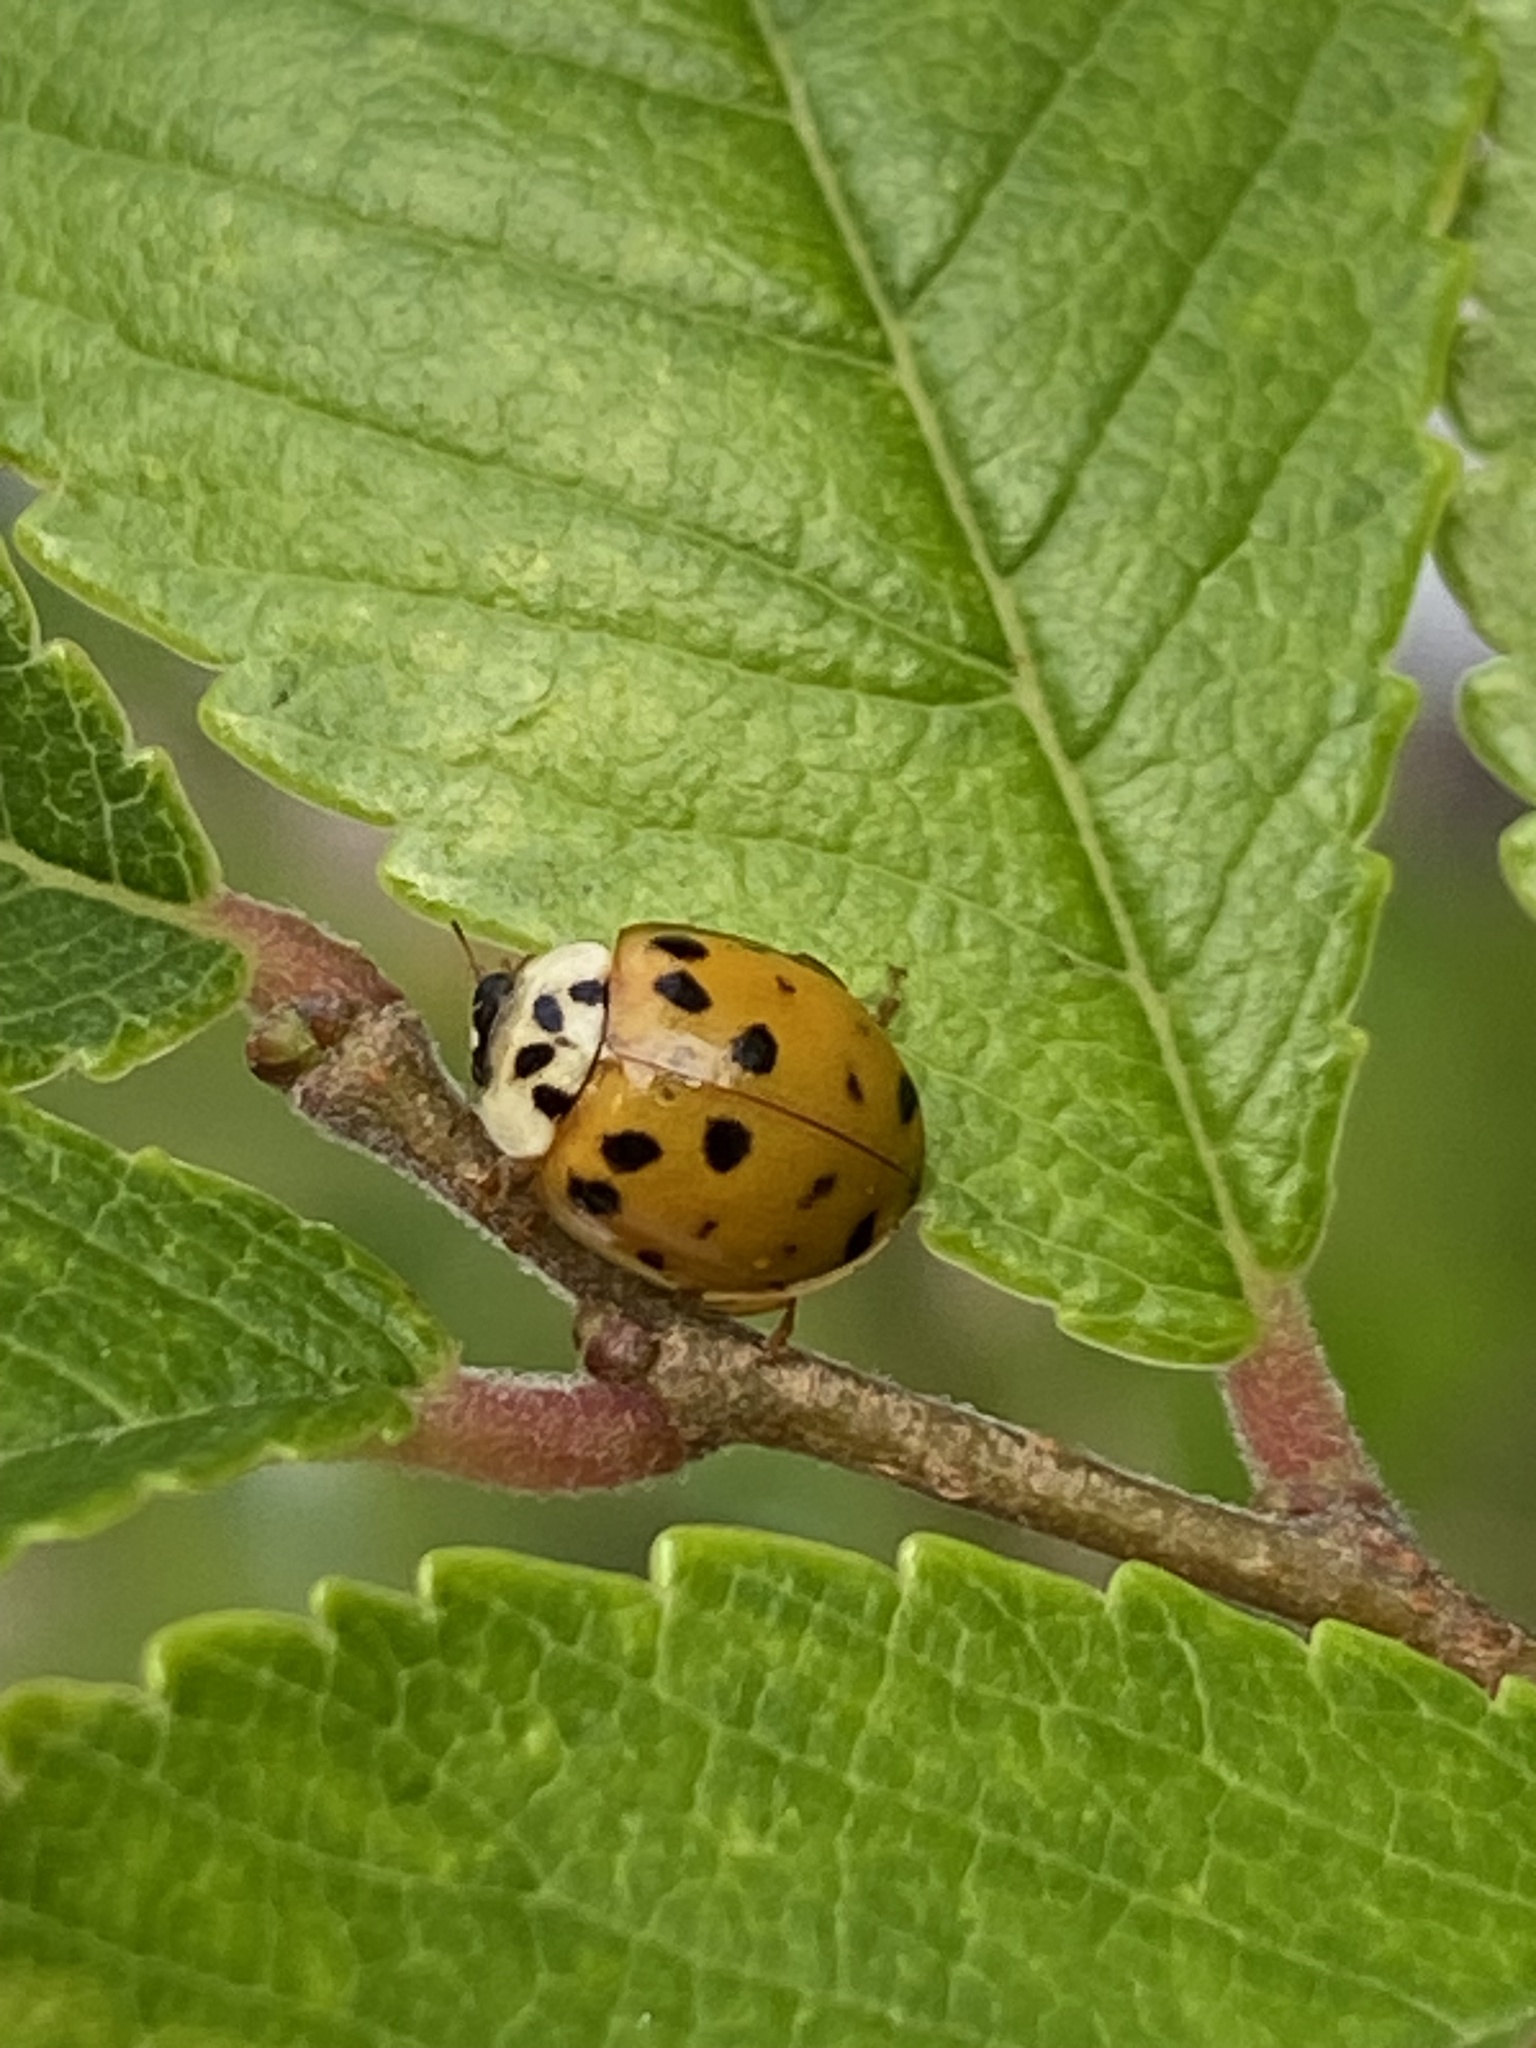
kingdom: Animalia
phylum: Arthropoda
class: Insecta
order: Coleoptera
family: Coccinellidae
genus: Harmonia
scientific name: Harmonia axyridis
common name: Harlequin ladybird
